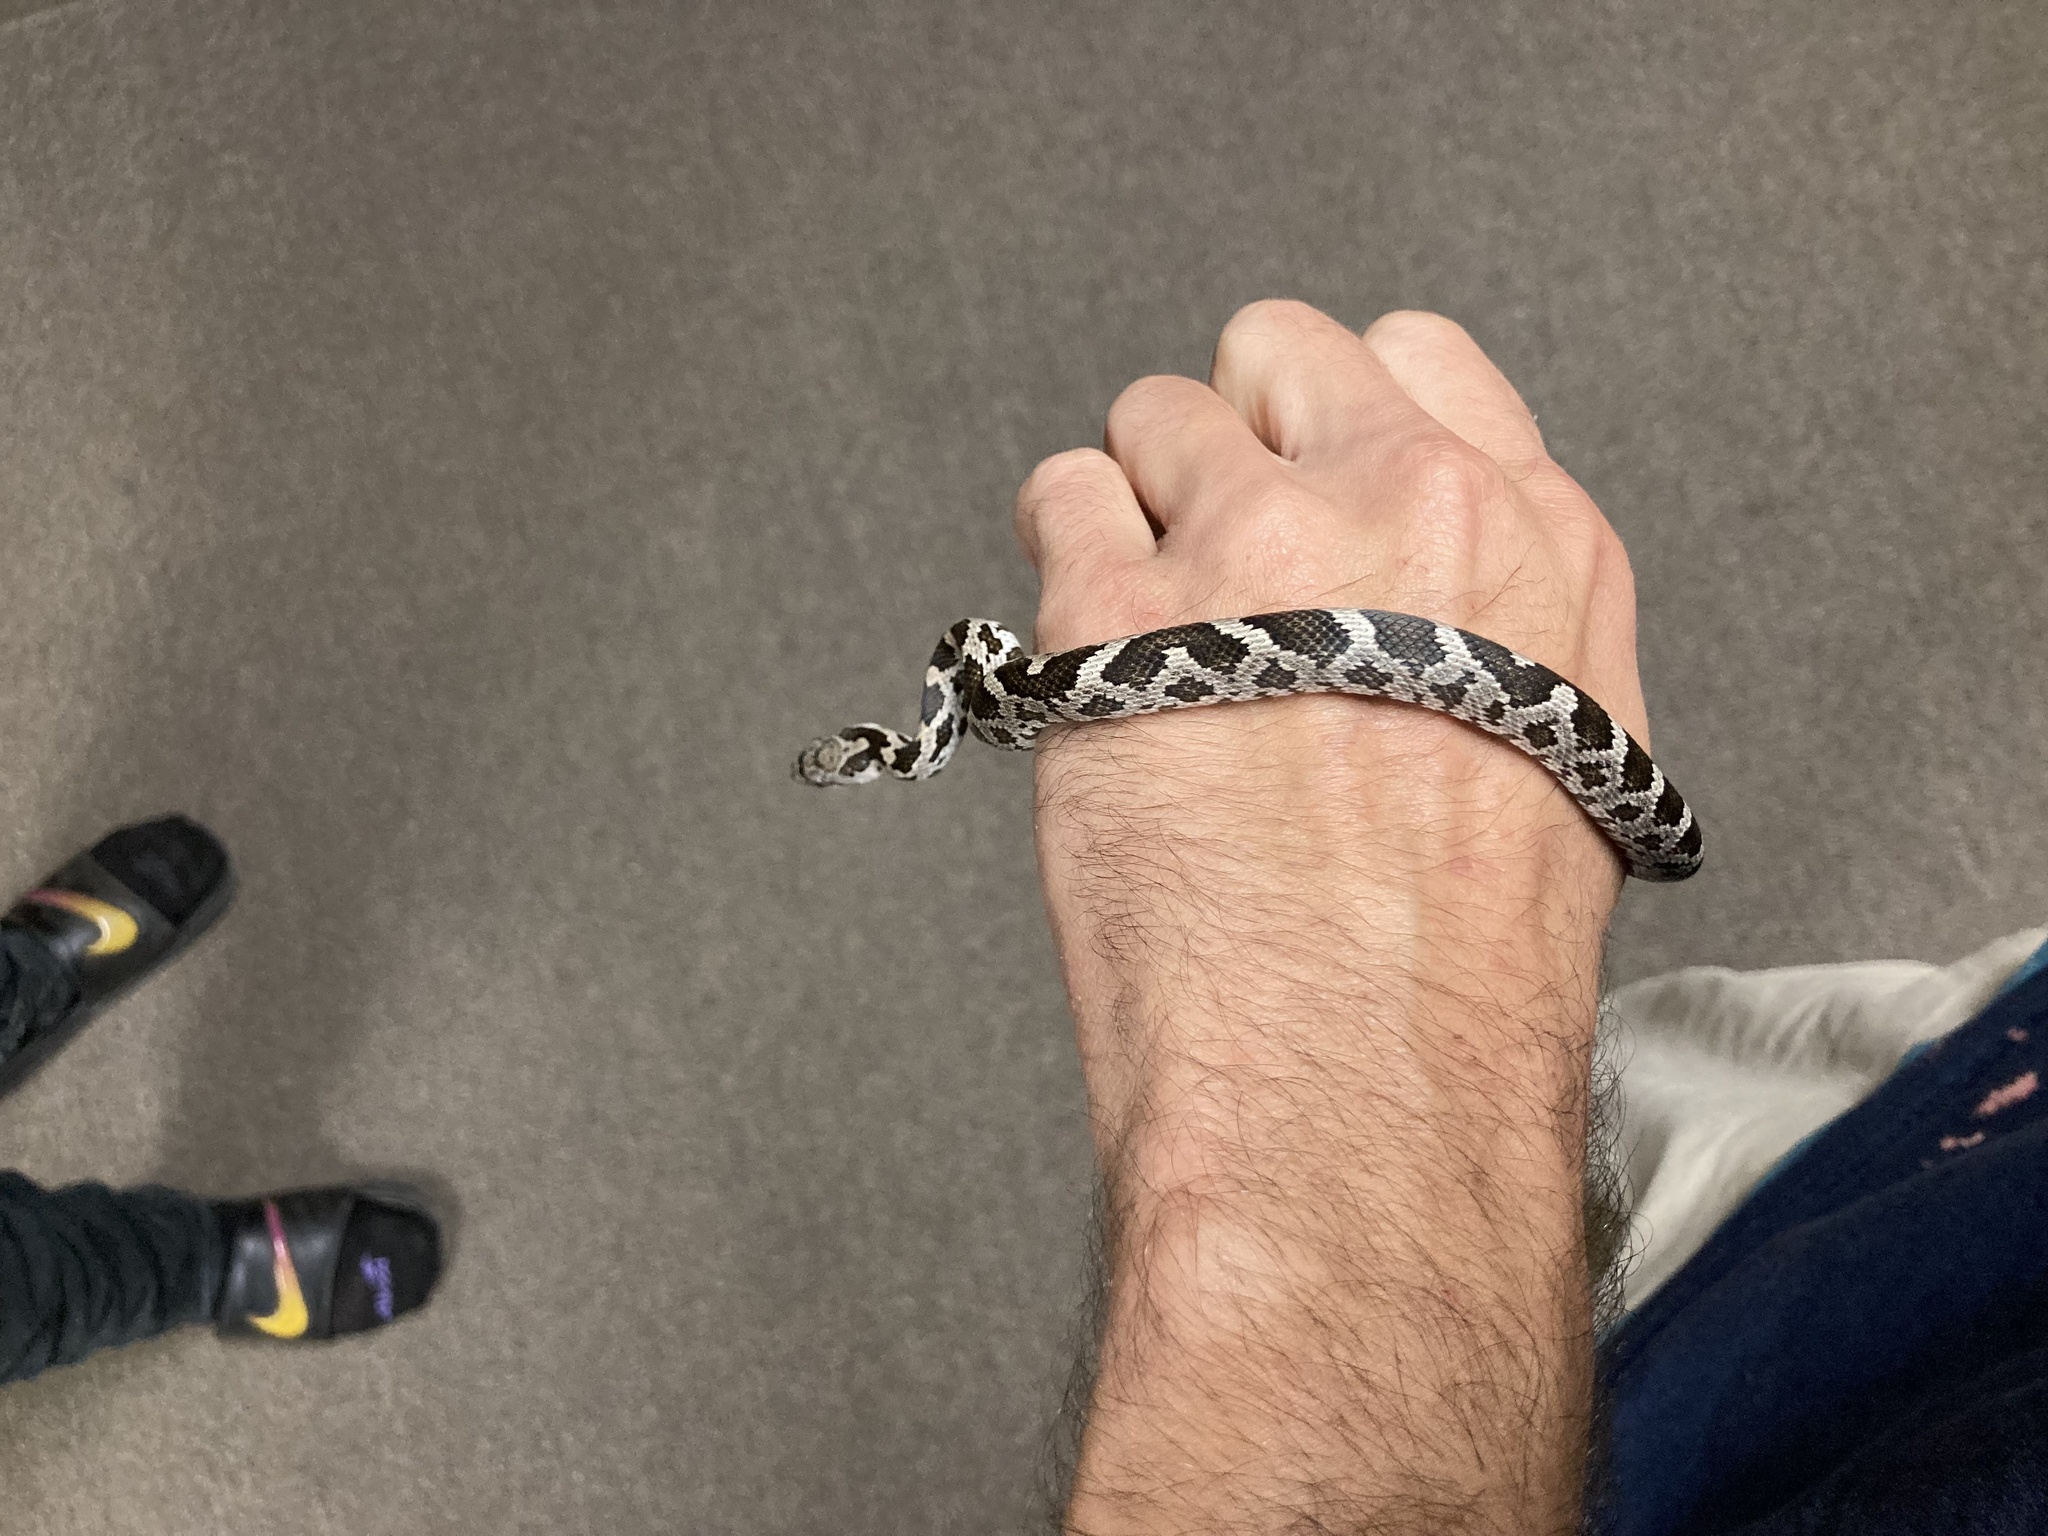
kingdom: Animalia
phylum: Chordata
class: Squamata
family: Colubridae
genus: Pantherophis
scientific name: Pantherophis spiloides
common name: Gray rat snake
